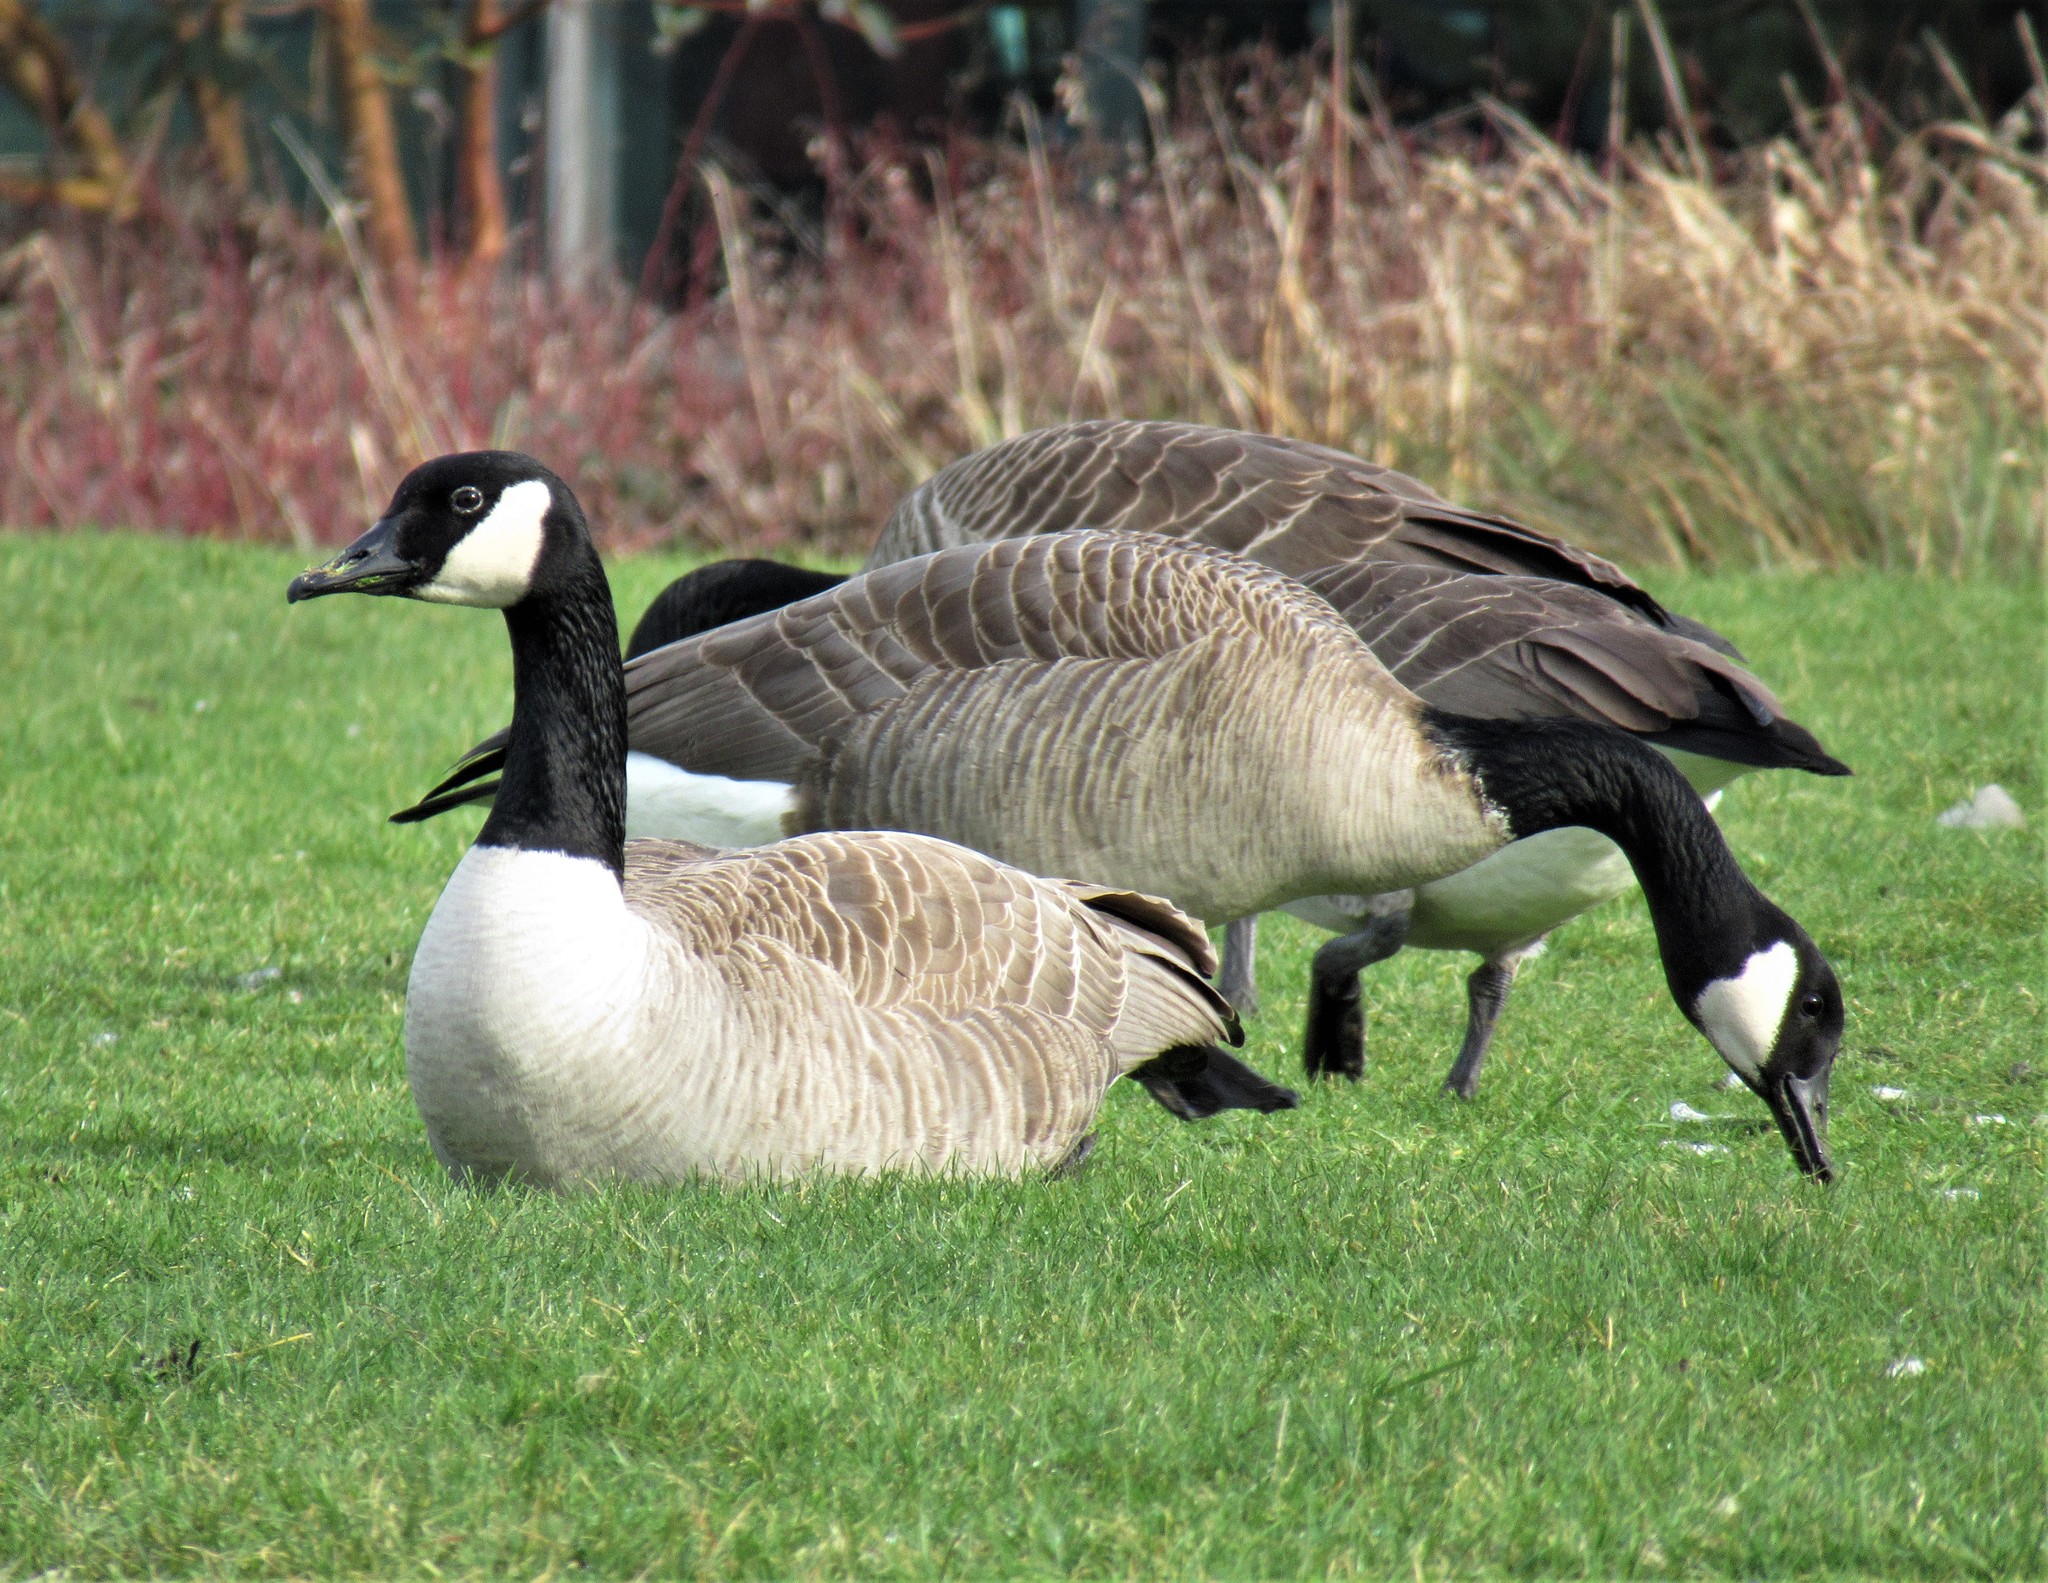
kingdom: Animalia
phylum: Chordata
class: Aves
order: Anseriformes
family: Anatidae
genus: Branta
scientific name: Branta canadensis
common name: Canada goose
